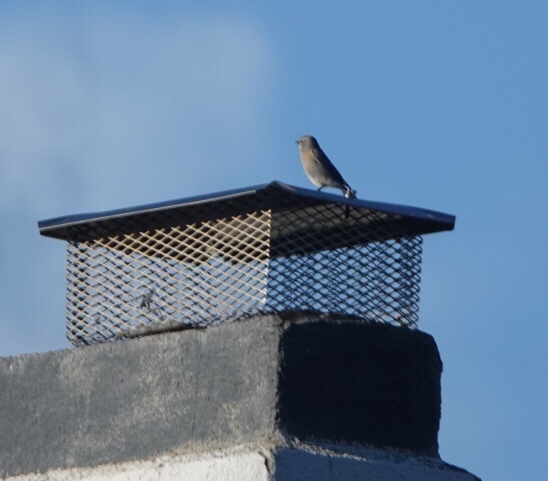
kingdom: Animalia
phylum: Chordata
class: Aves
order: Passeriformes
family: Turdidae
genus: Sialia
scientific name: Sialia mexicana
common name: Western bluebird
